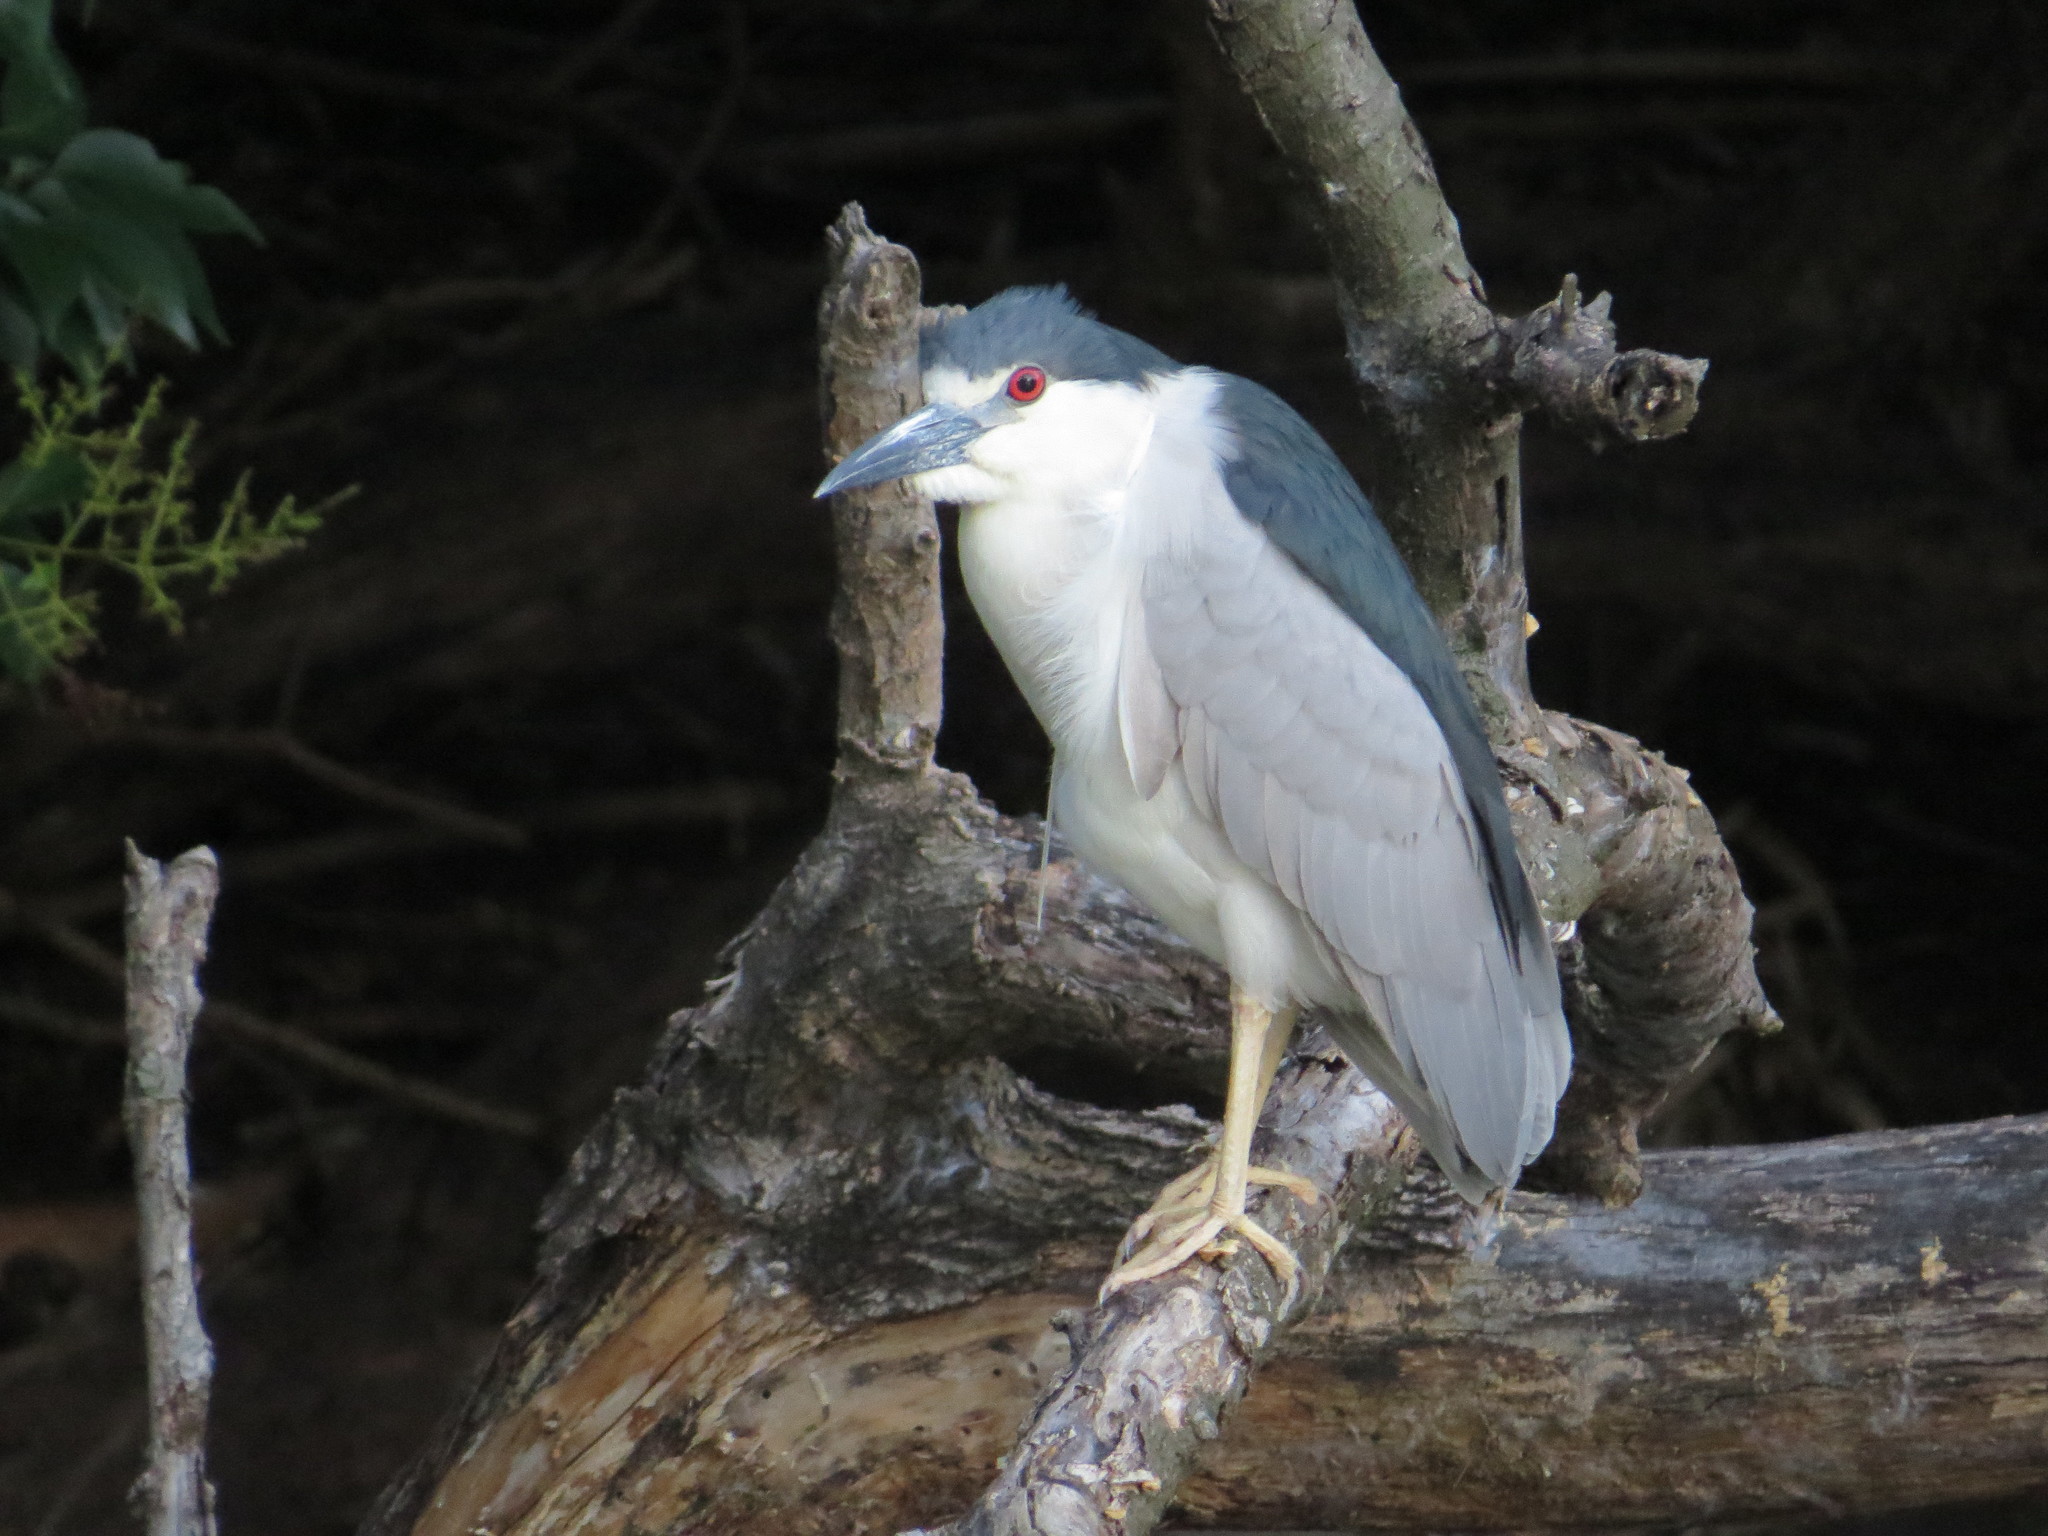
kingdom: Animalia
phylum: Chordata
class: Aves
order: Pelecaniformes
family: Ardeidae
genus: Nycticorax
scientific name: Nycticorax nycticorax
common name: Black-crowned night heron
